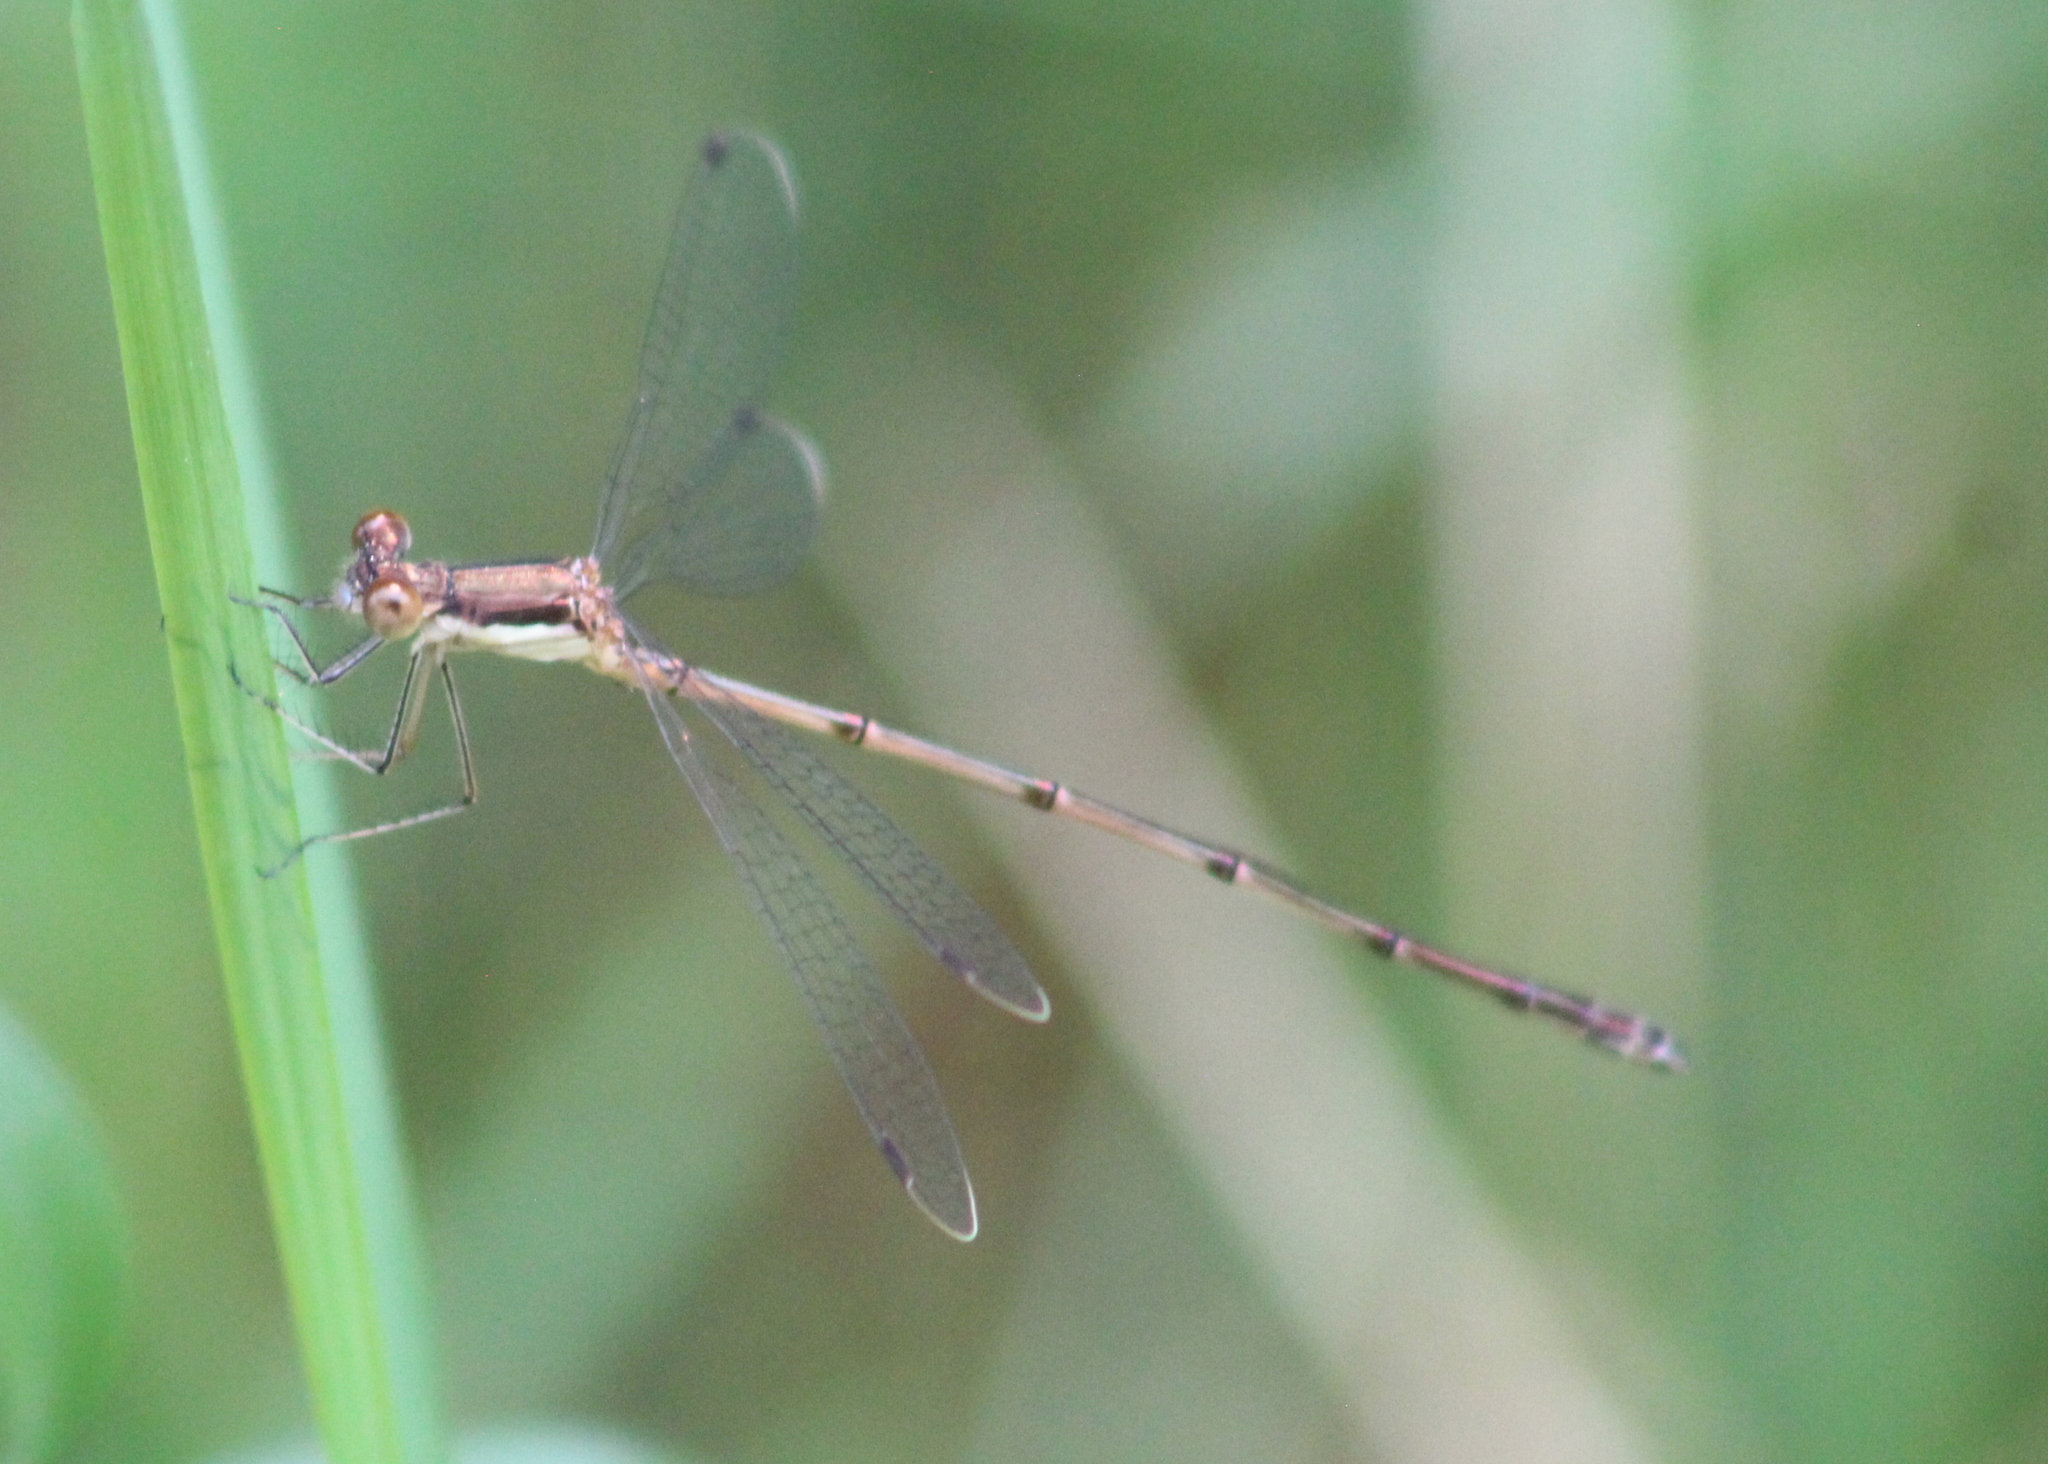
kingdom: Animalia
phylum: Arthropoda
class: Insecta
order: Odonata
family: Lestidae
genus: Lestes
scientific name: Lestes rectangularis
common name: Slender spreadwing
